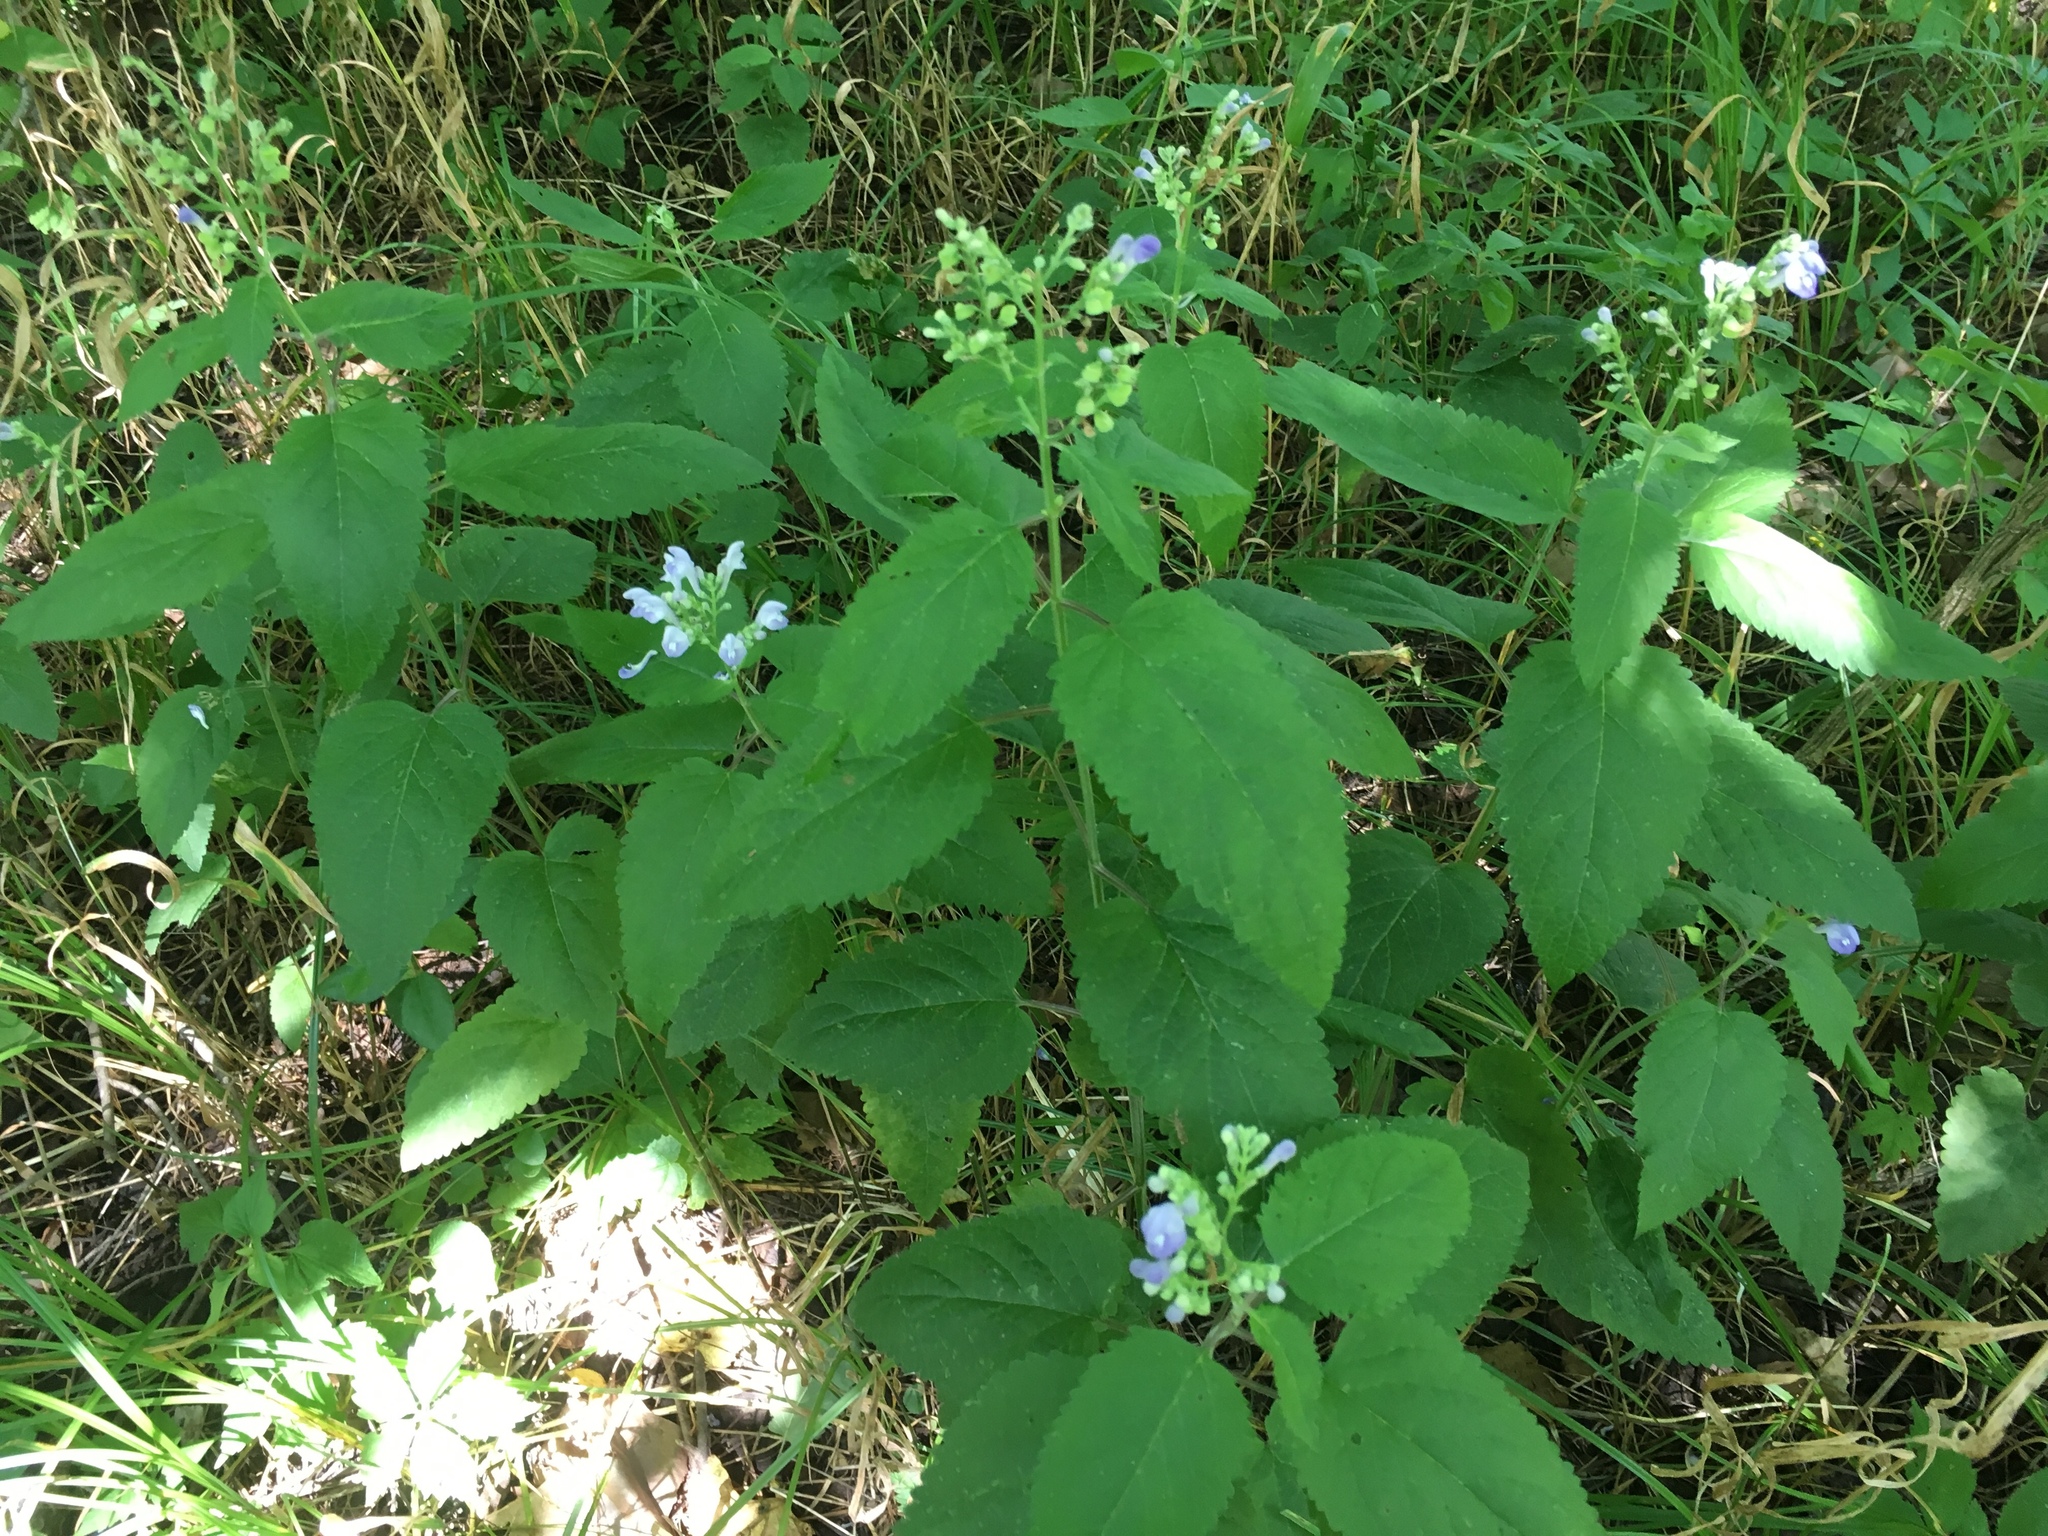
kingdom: Plantae
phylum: Tracheophyta
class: Magnoliopsida
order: Lamiales
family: Lamiaceae
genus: Scutellaria
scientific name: Scutellaria incana
